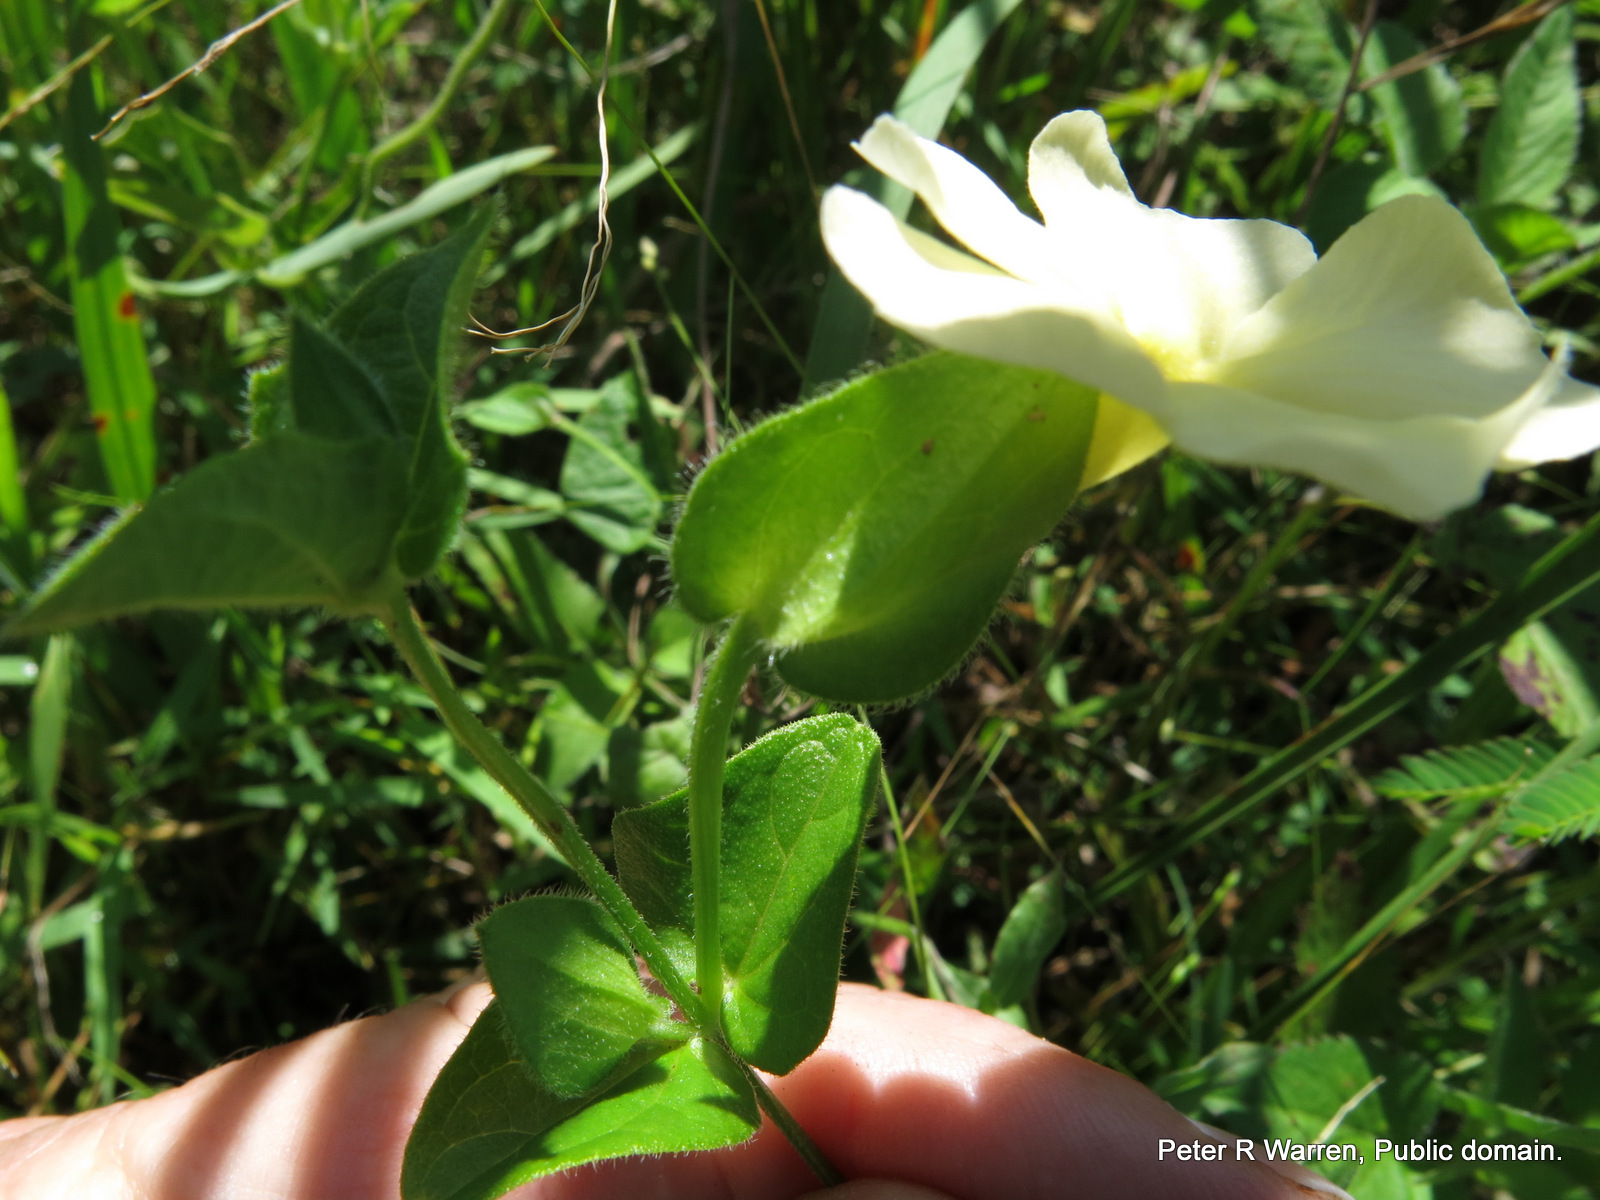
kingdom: Plantae
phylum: Tracheophyta
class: Magnoliopsida
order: Lamiales
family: Acanthaceae
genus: Thunbergia
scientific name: Thunbergia pondoensis
